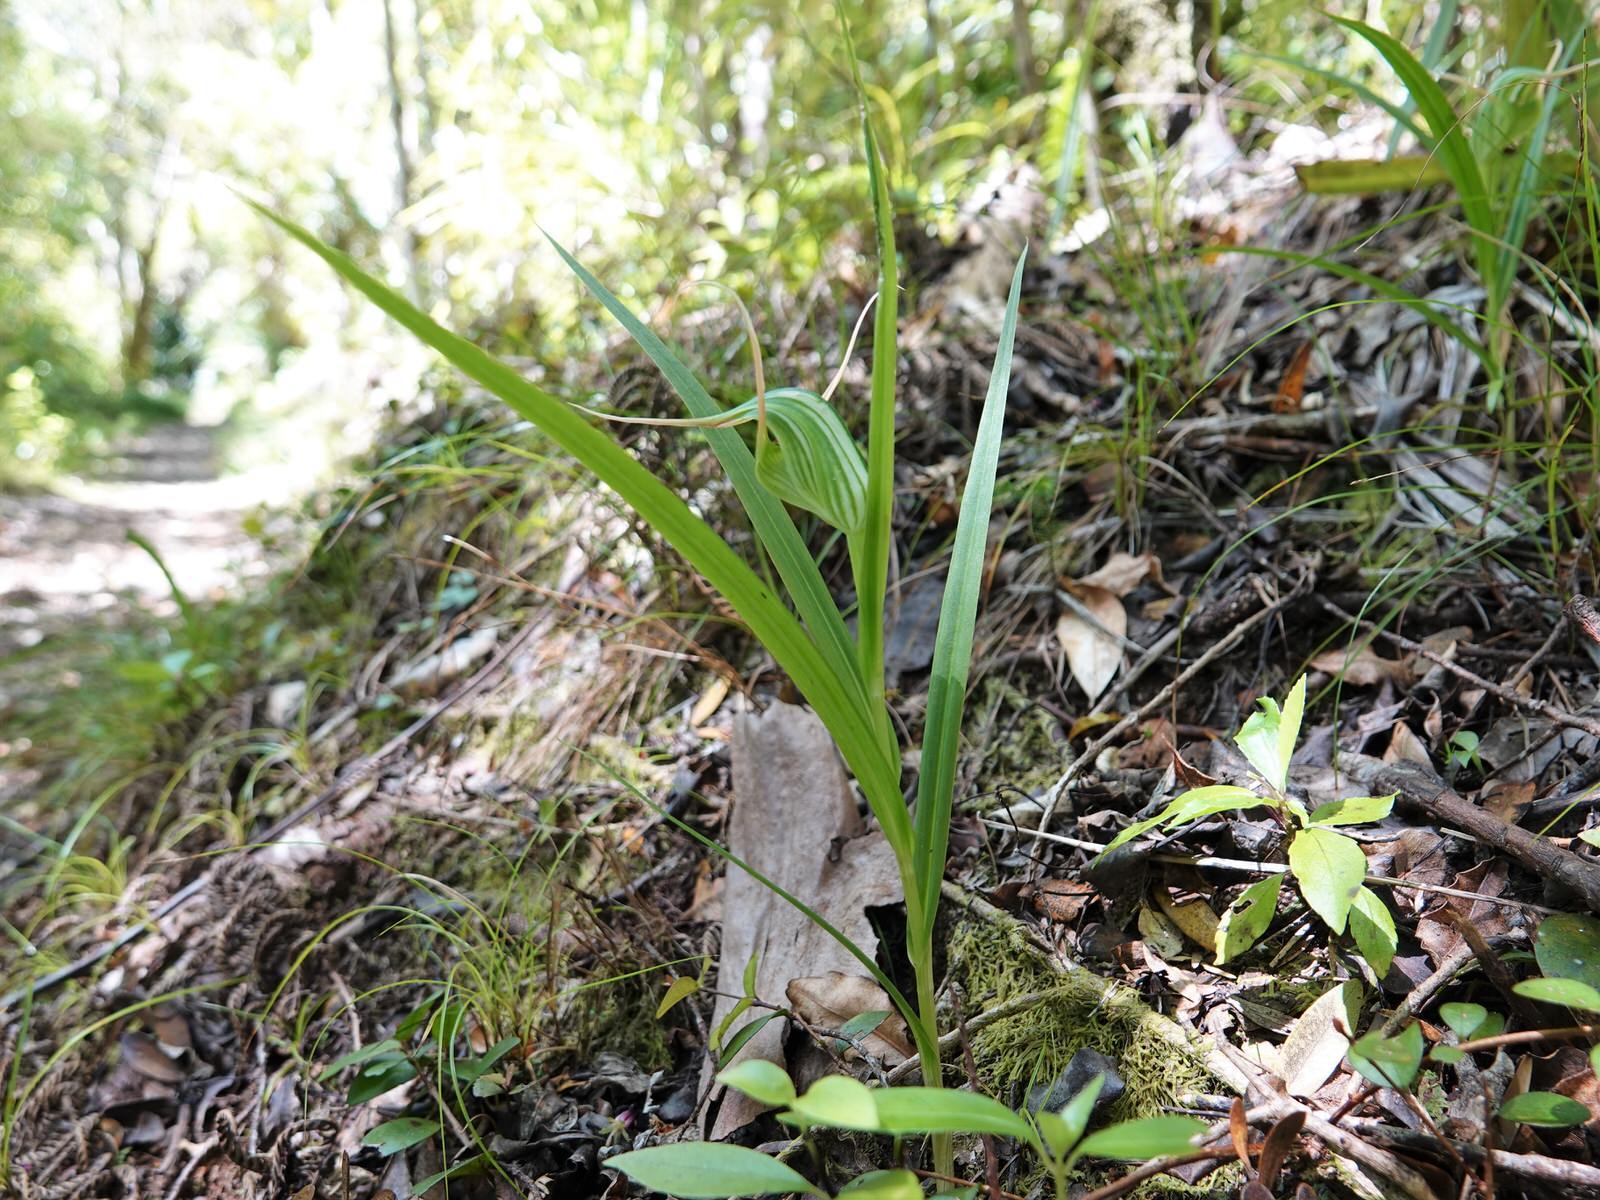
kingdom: Plantae
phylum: Tracheophyta
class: Liliopsida
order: Asparagales
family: Orchidaceae
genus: Pterostylis
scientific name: Pterostylis banksii
